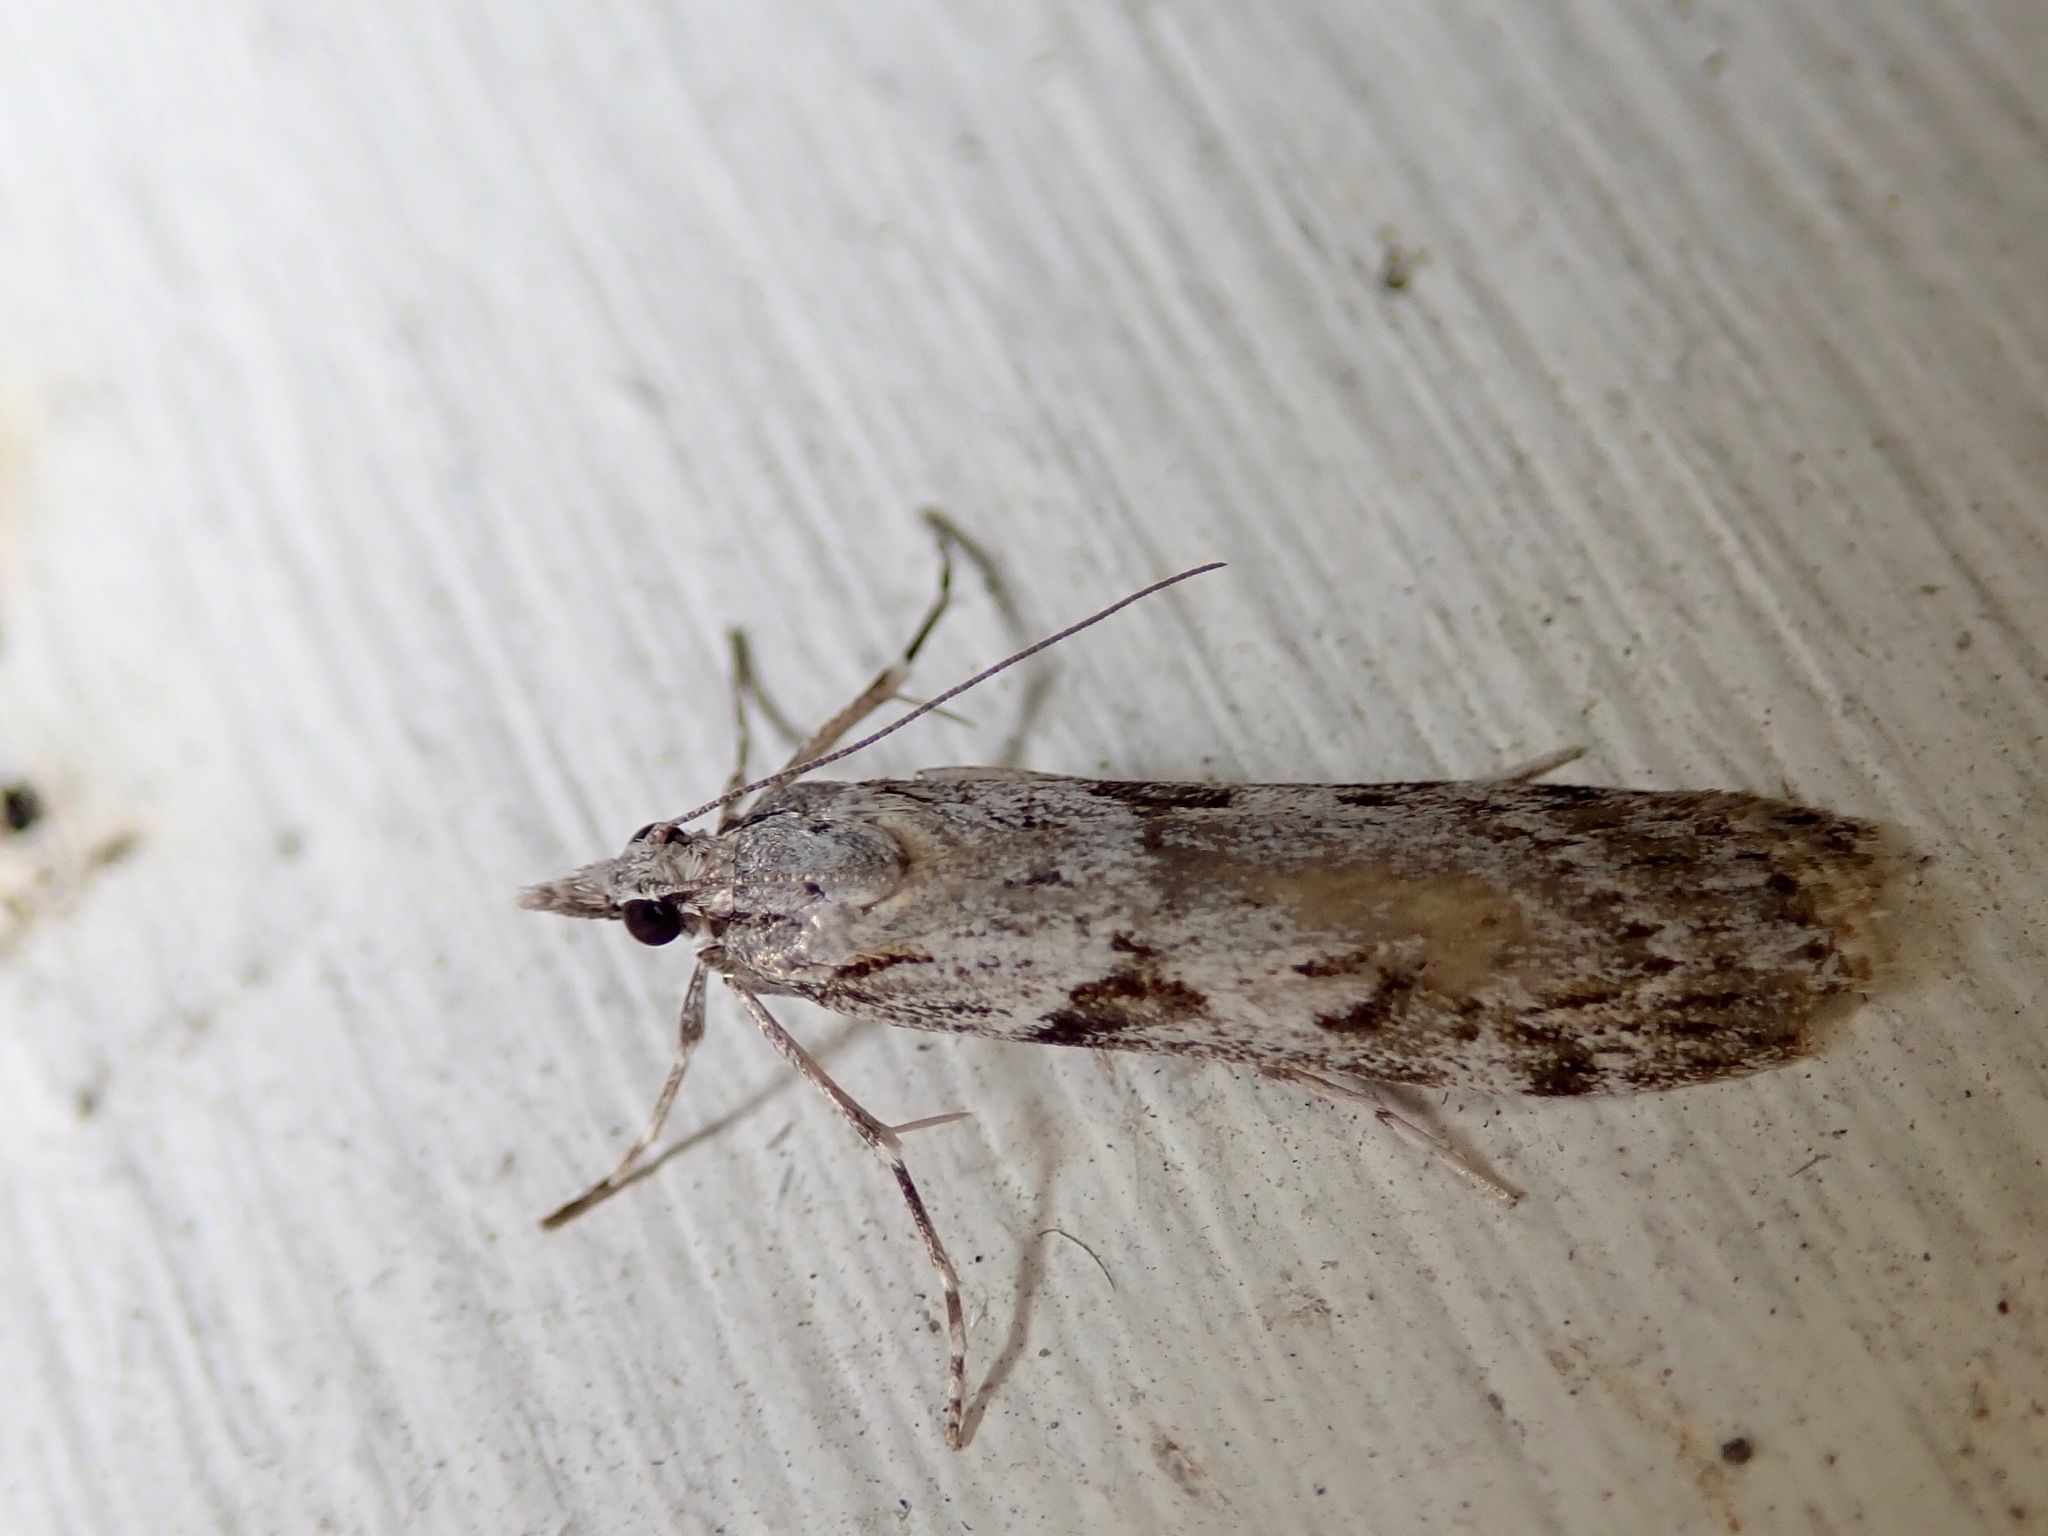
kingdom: Animalia
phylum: Arthropoda
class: Insecta
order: Lepidoptera
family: Crambidae
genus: Scoparia
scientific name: Scoparia halopis
